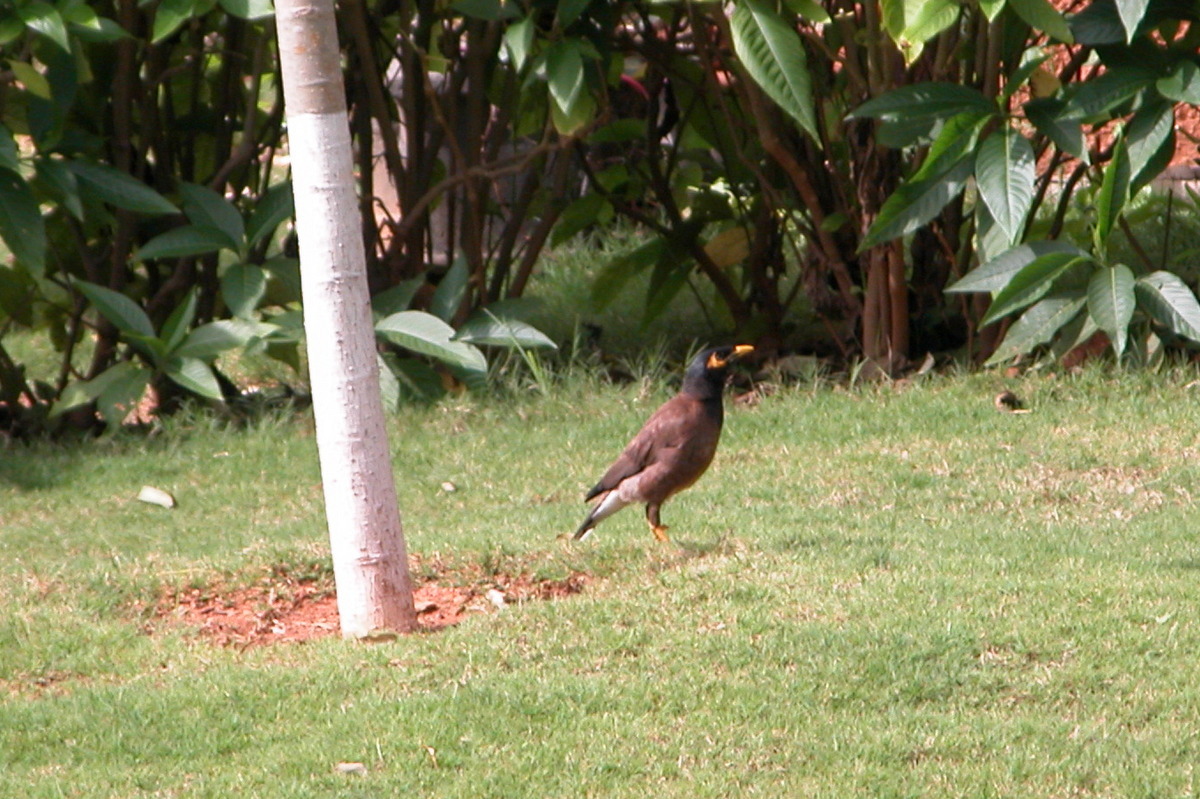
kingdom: Animalia
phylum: Chordata
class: Aves
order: Passeriformes
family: Sturnidae
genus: Acridotheres
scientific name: Acridotheres tristis
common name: Common myna
